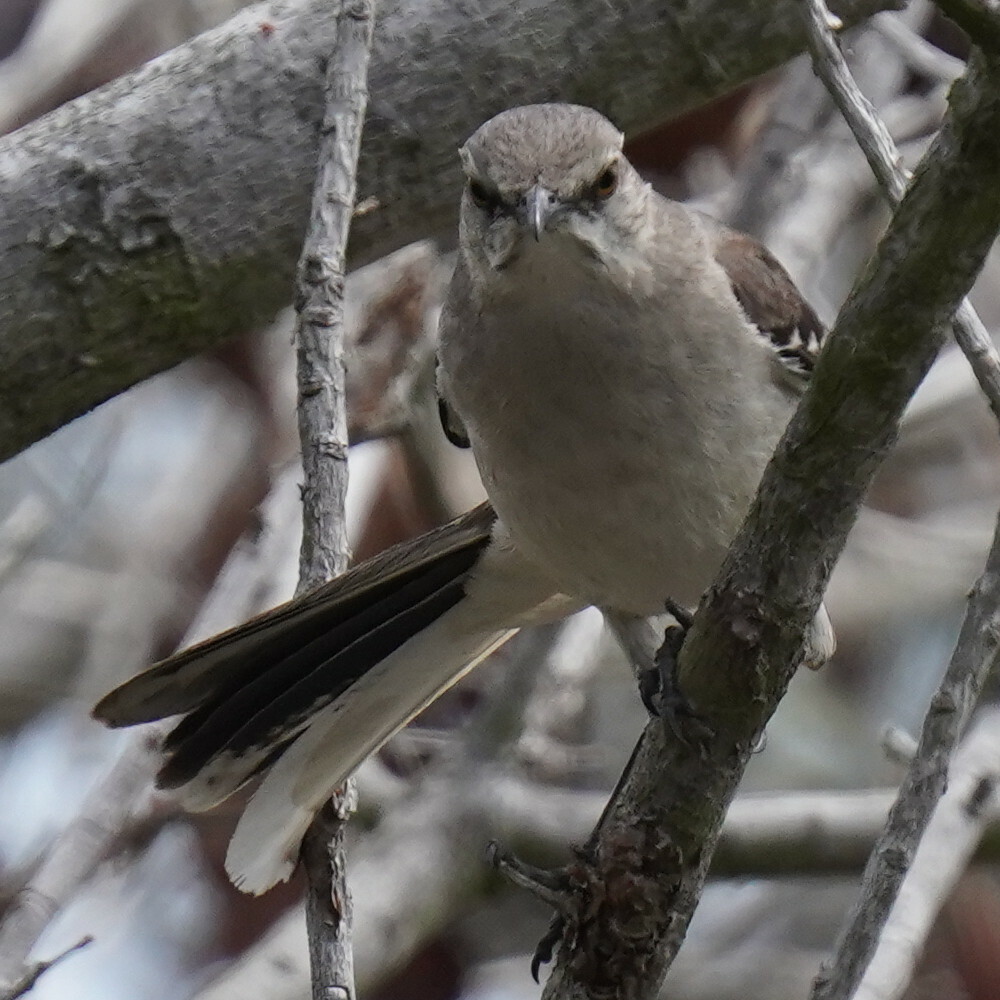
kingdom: Animalia
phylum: Chordata
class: Aves
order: Passeriformes
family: Mimidae
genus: Mimus
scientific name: Mimus polyglottos
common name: Northern mockingbird
